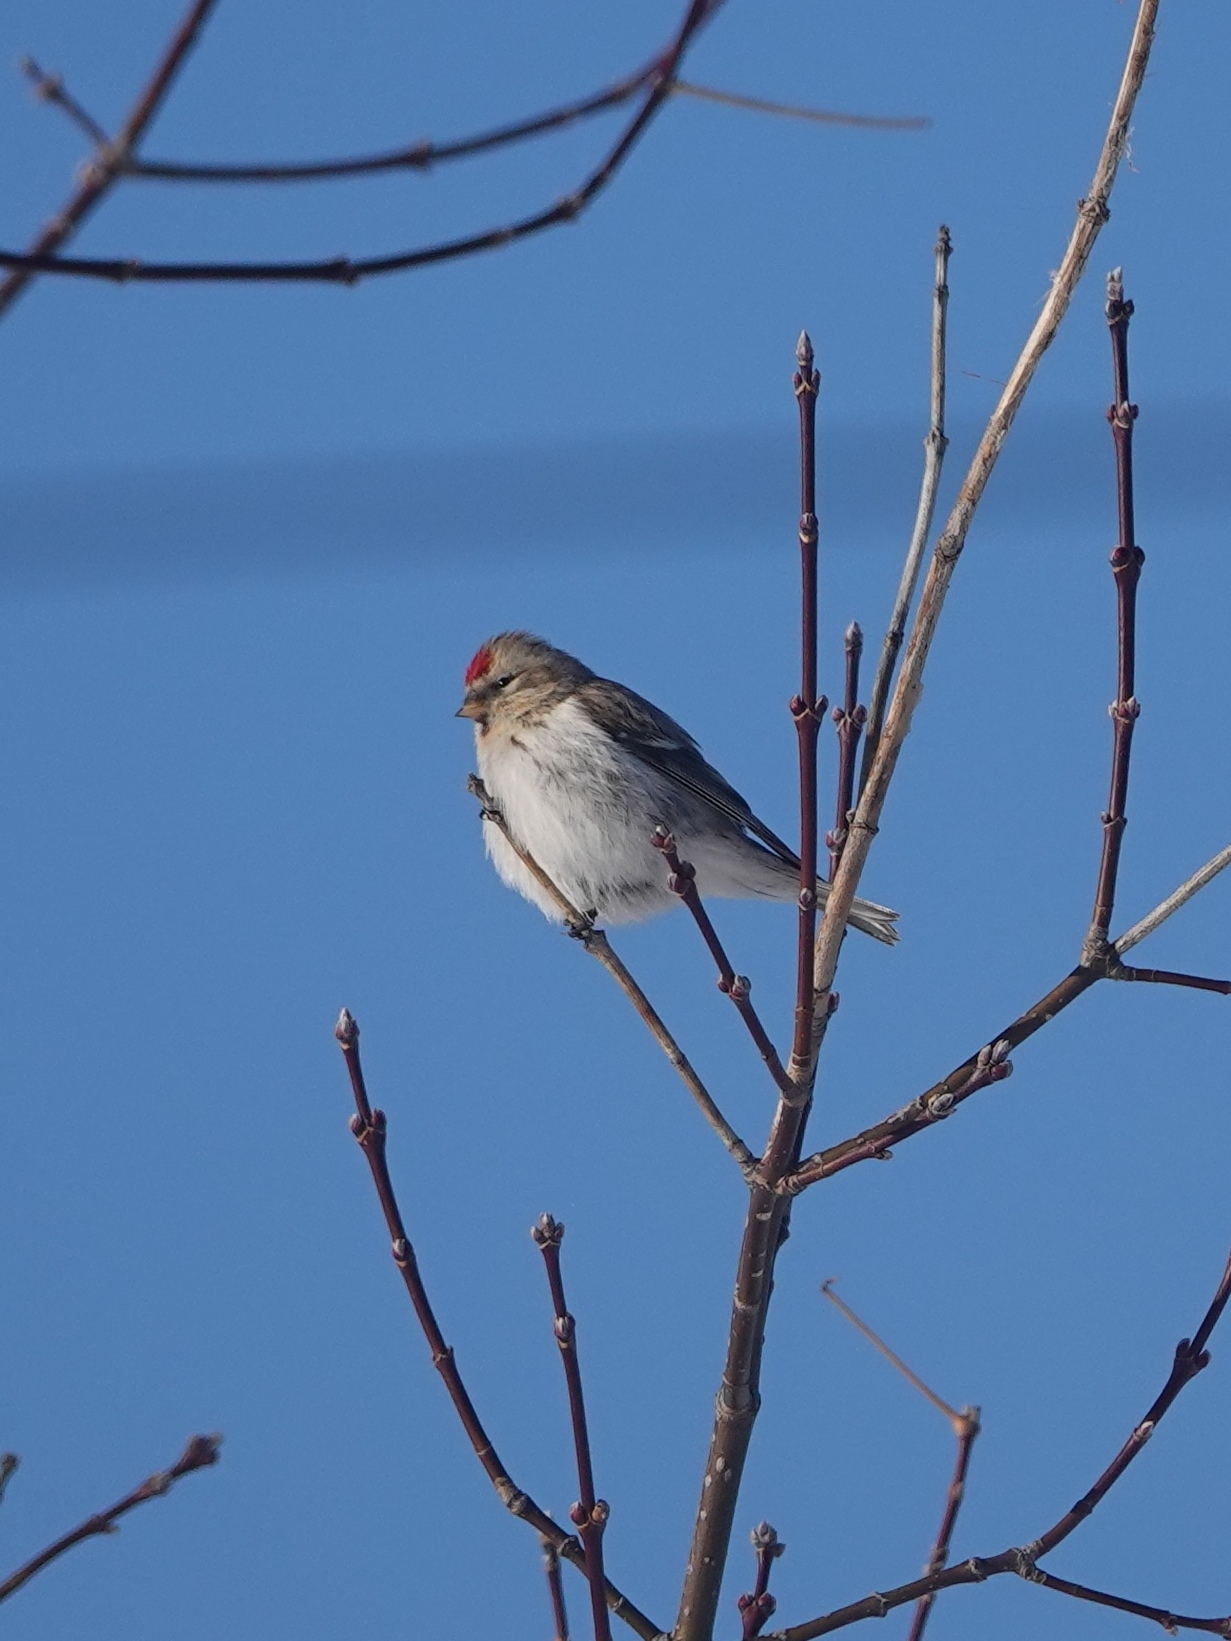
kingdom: Animalia
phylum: Chordata
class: Aves
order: Passeriformes
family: Fringillidae
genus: Acanthis
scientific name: Acanthis hornemanni
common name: Arctic redpoll
